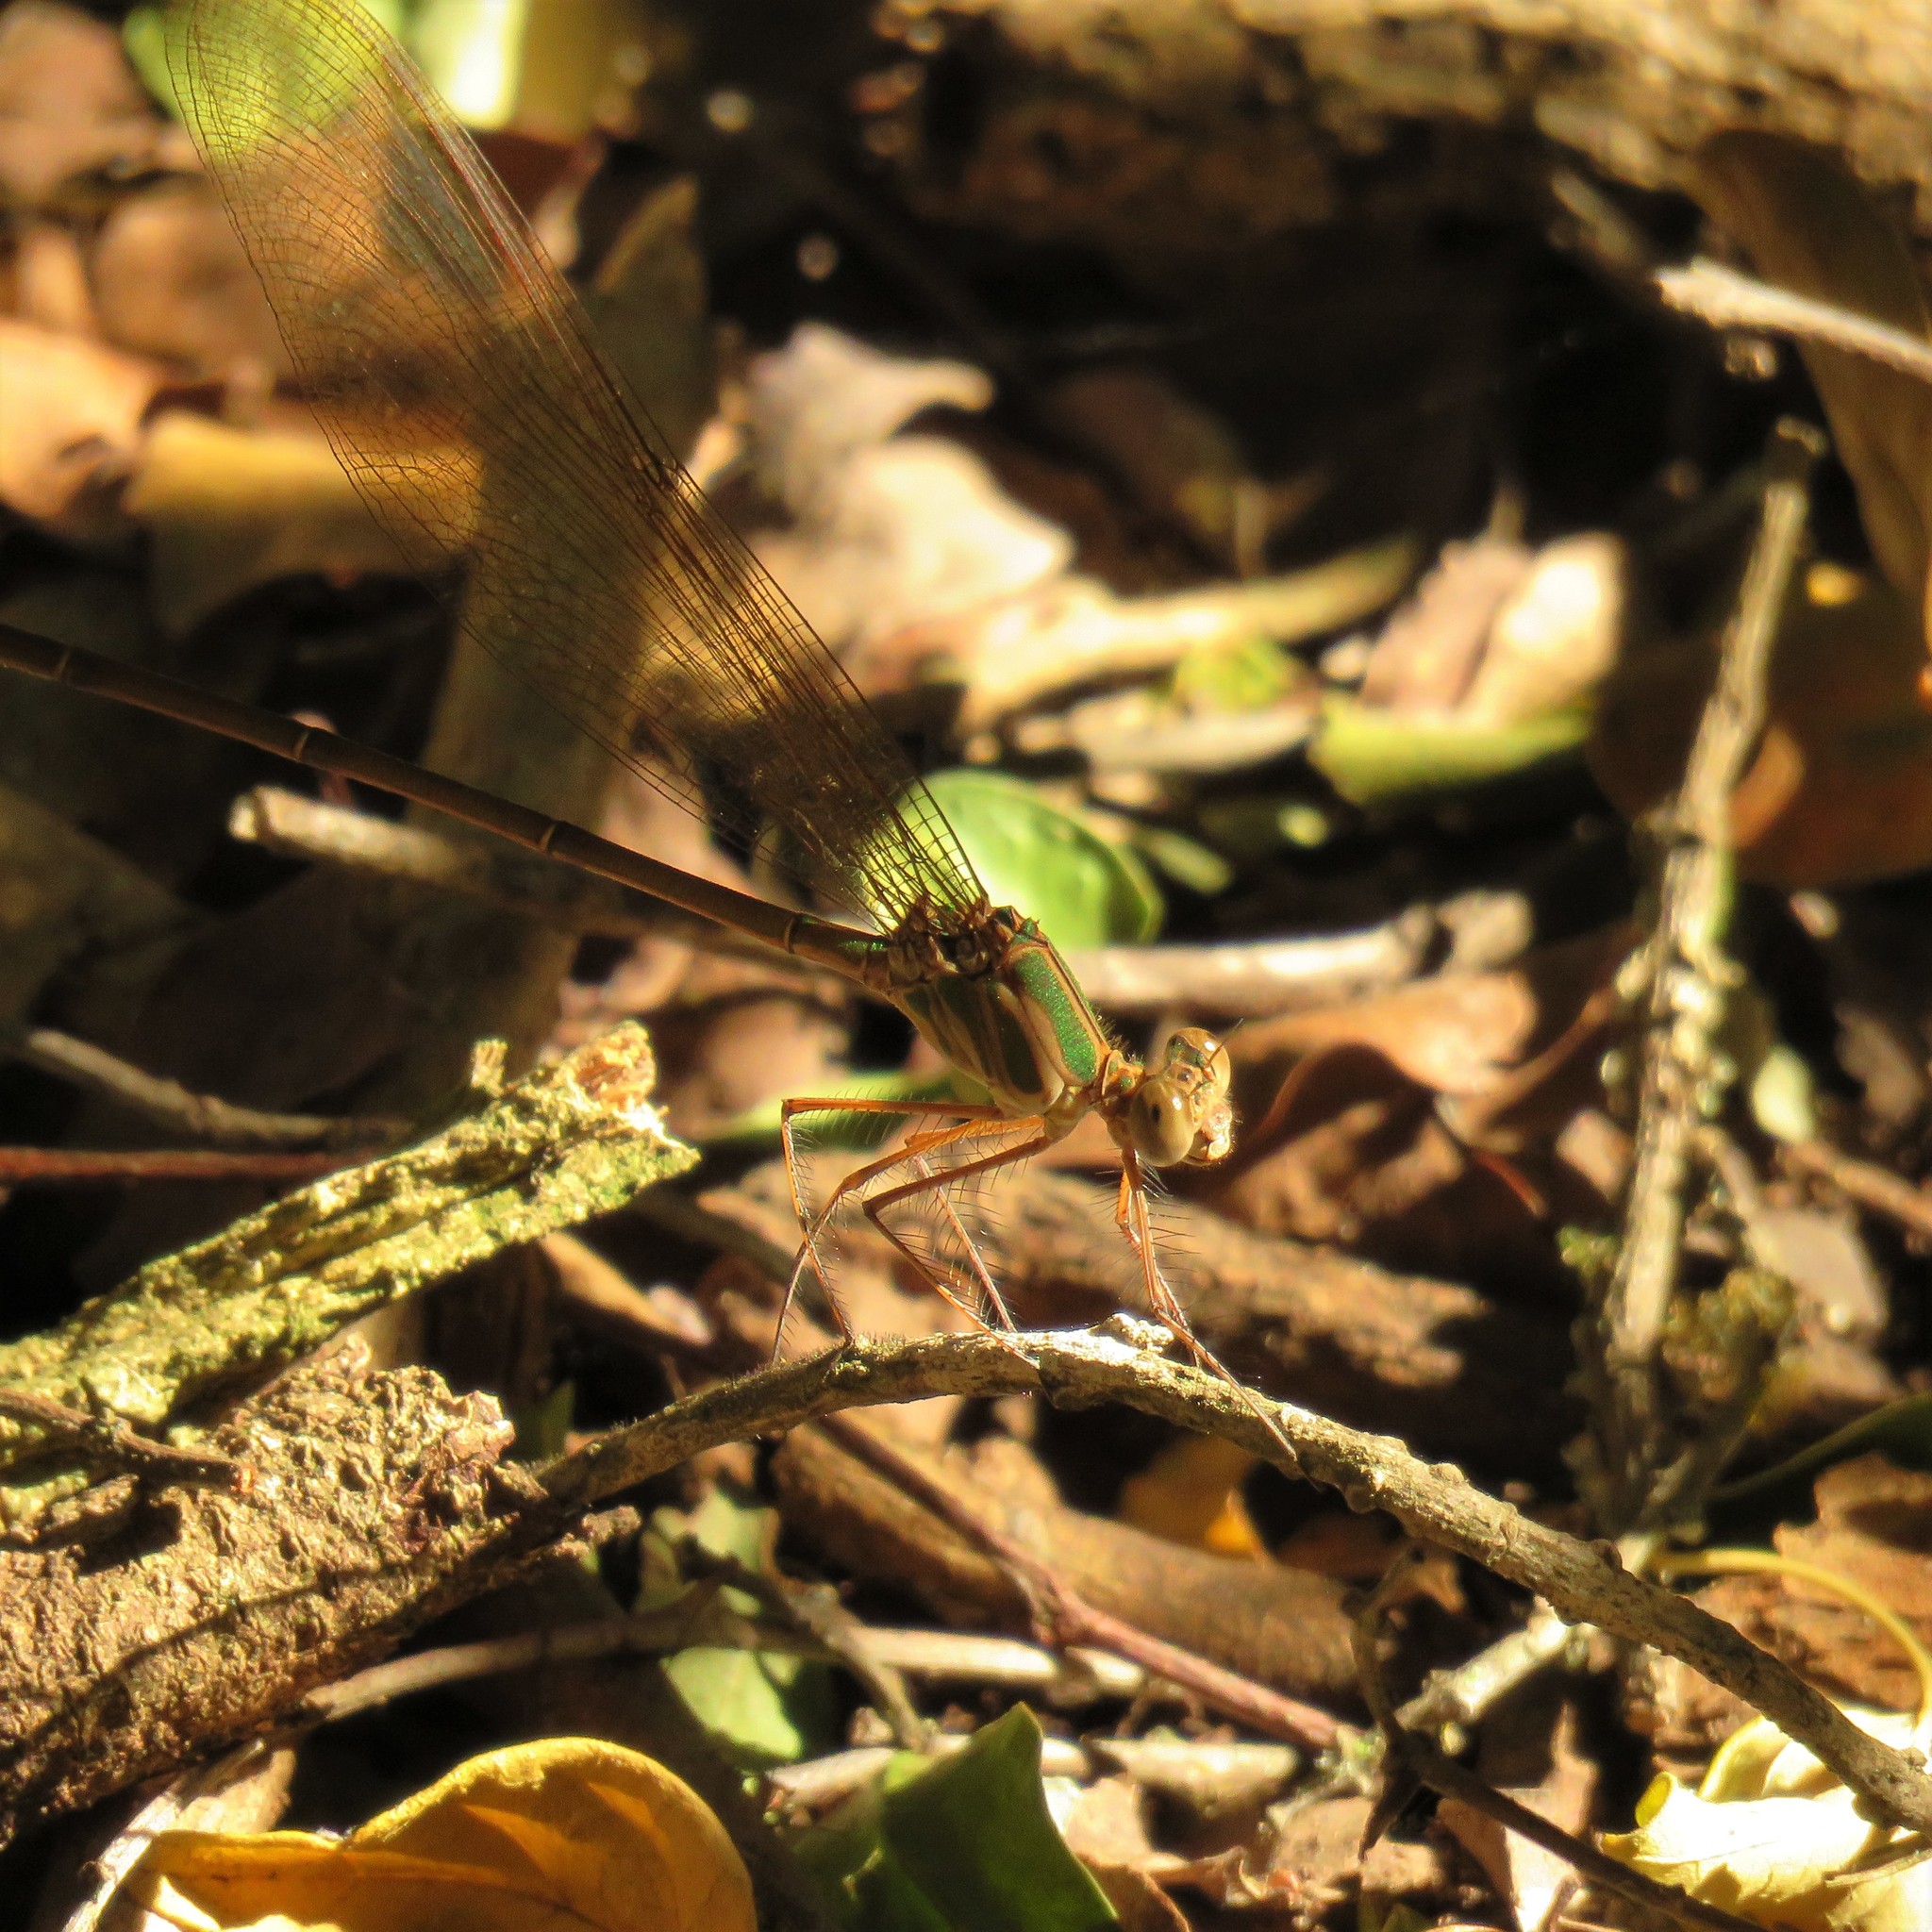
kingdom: Animalia
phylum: Arthropoda
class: Insecta
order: Odonata
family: Calopterygidae
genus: Phaon
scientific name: Phaon iridipennis
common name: Glistening demoiselle
